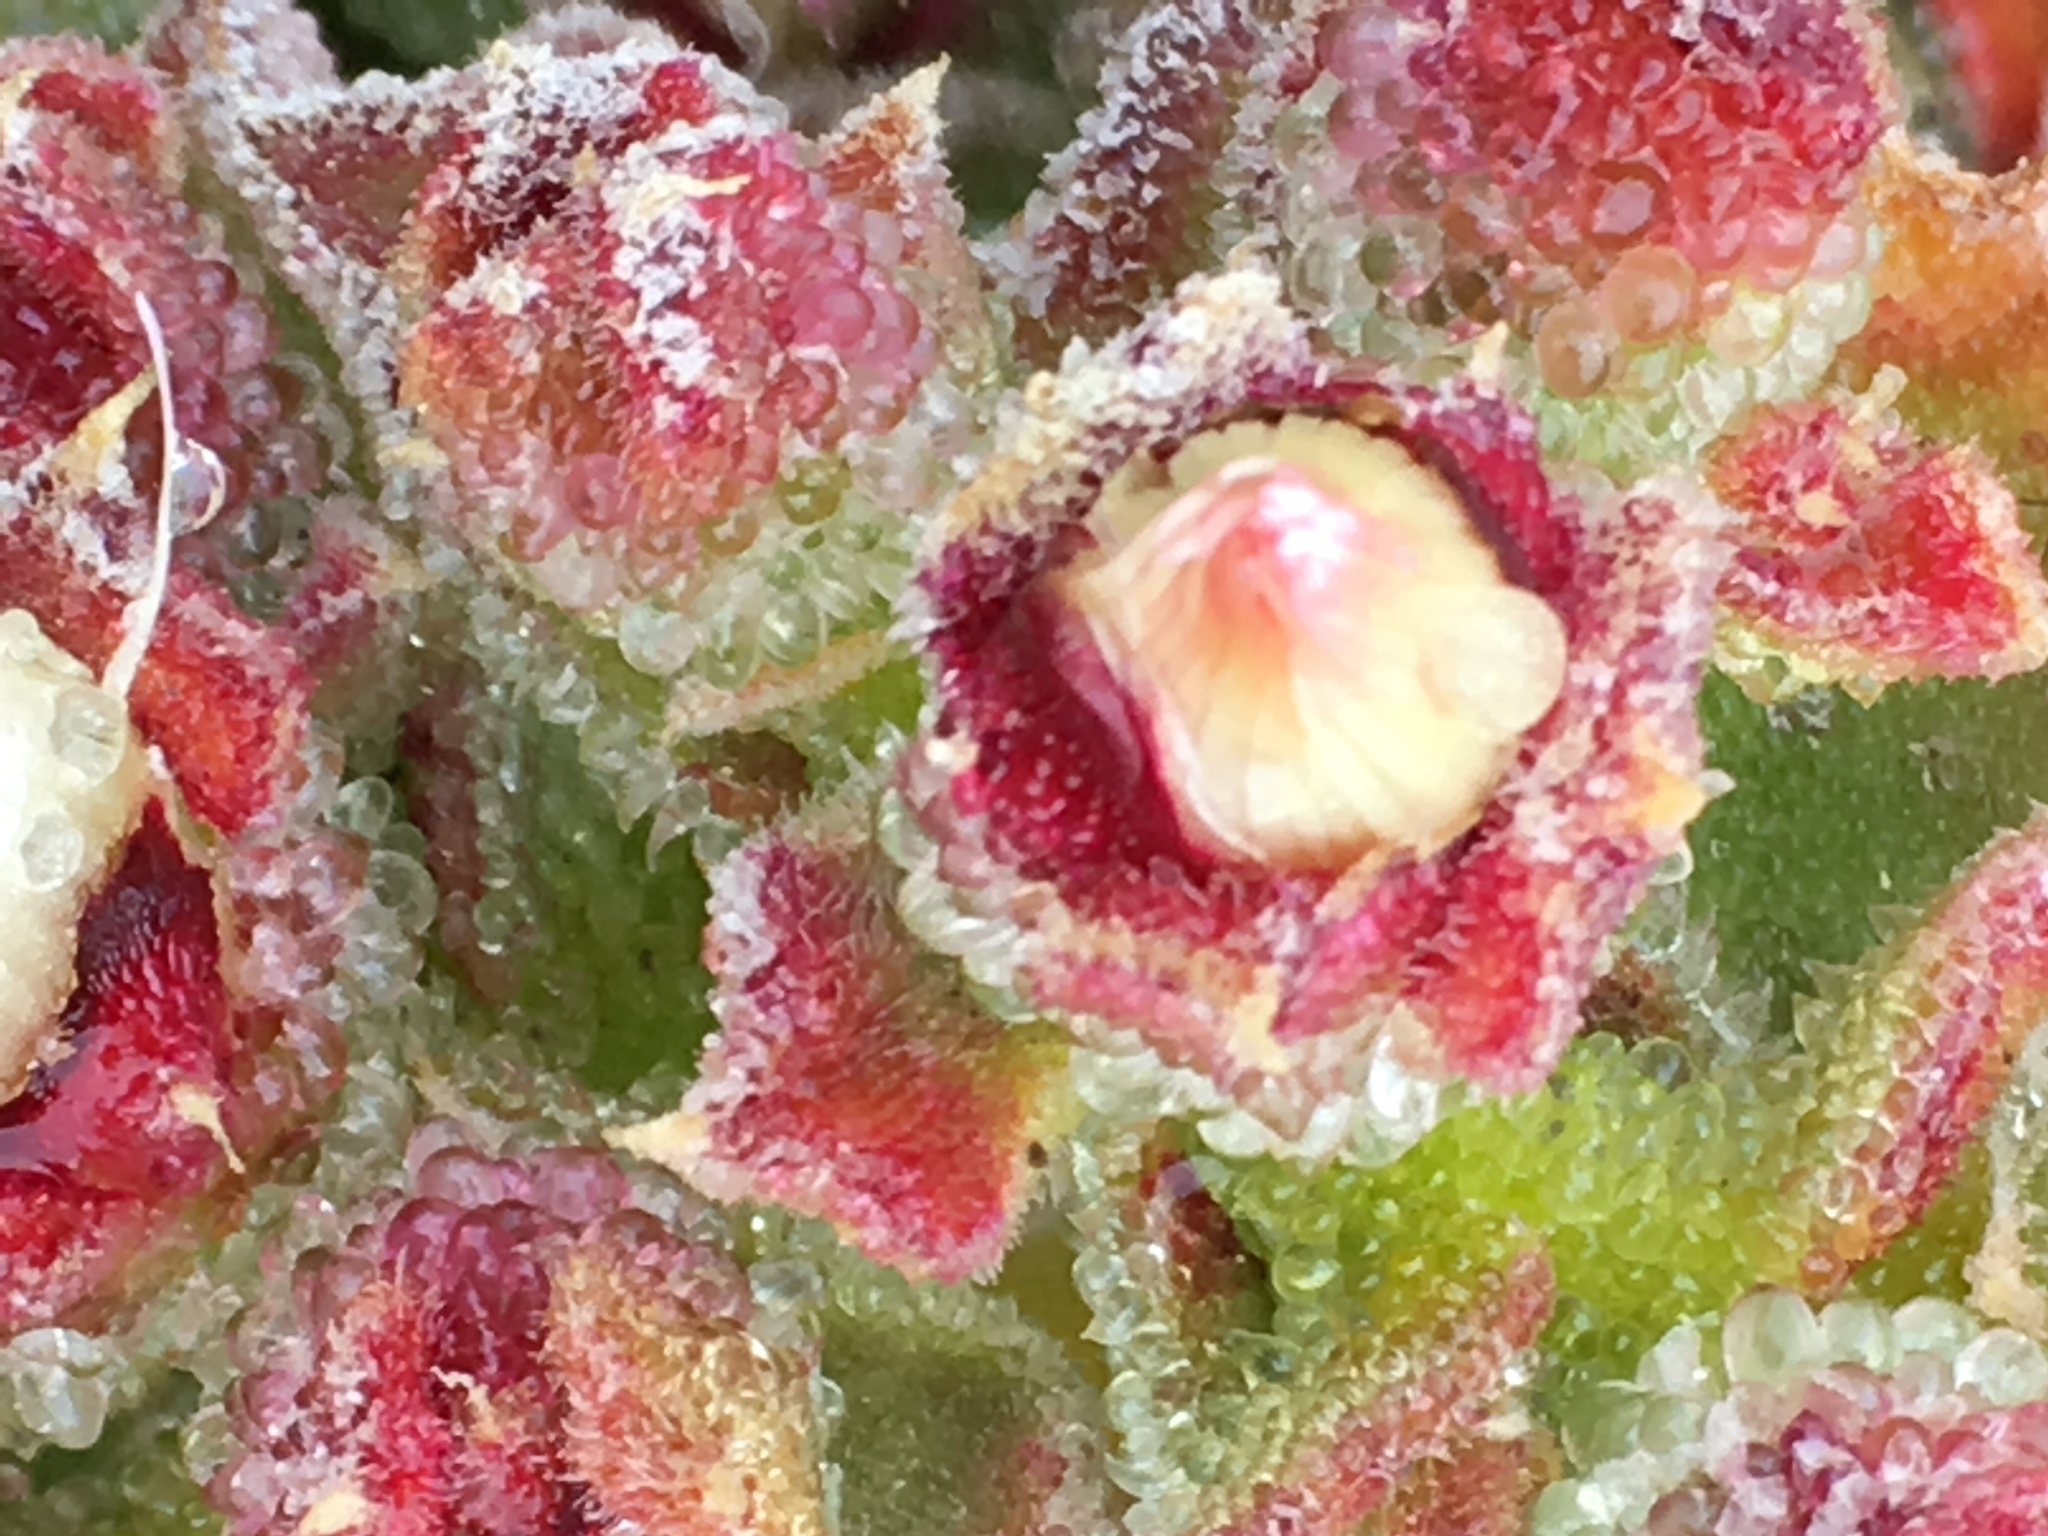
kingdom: Plantae
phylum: Tracheophyta
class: Magnoliopsida
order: Caryophyllales
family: Aizoaceae
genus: Mesembryanthemum
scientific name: Mesembryanthemum crystallinum
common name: Common iceplant
